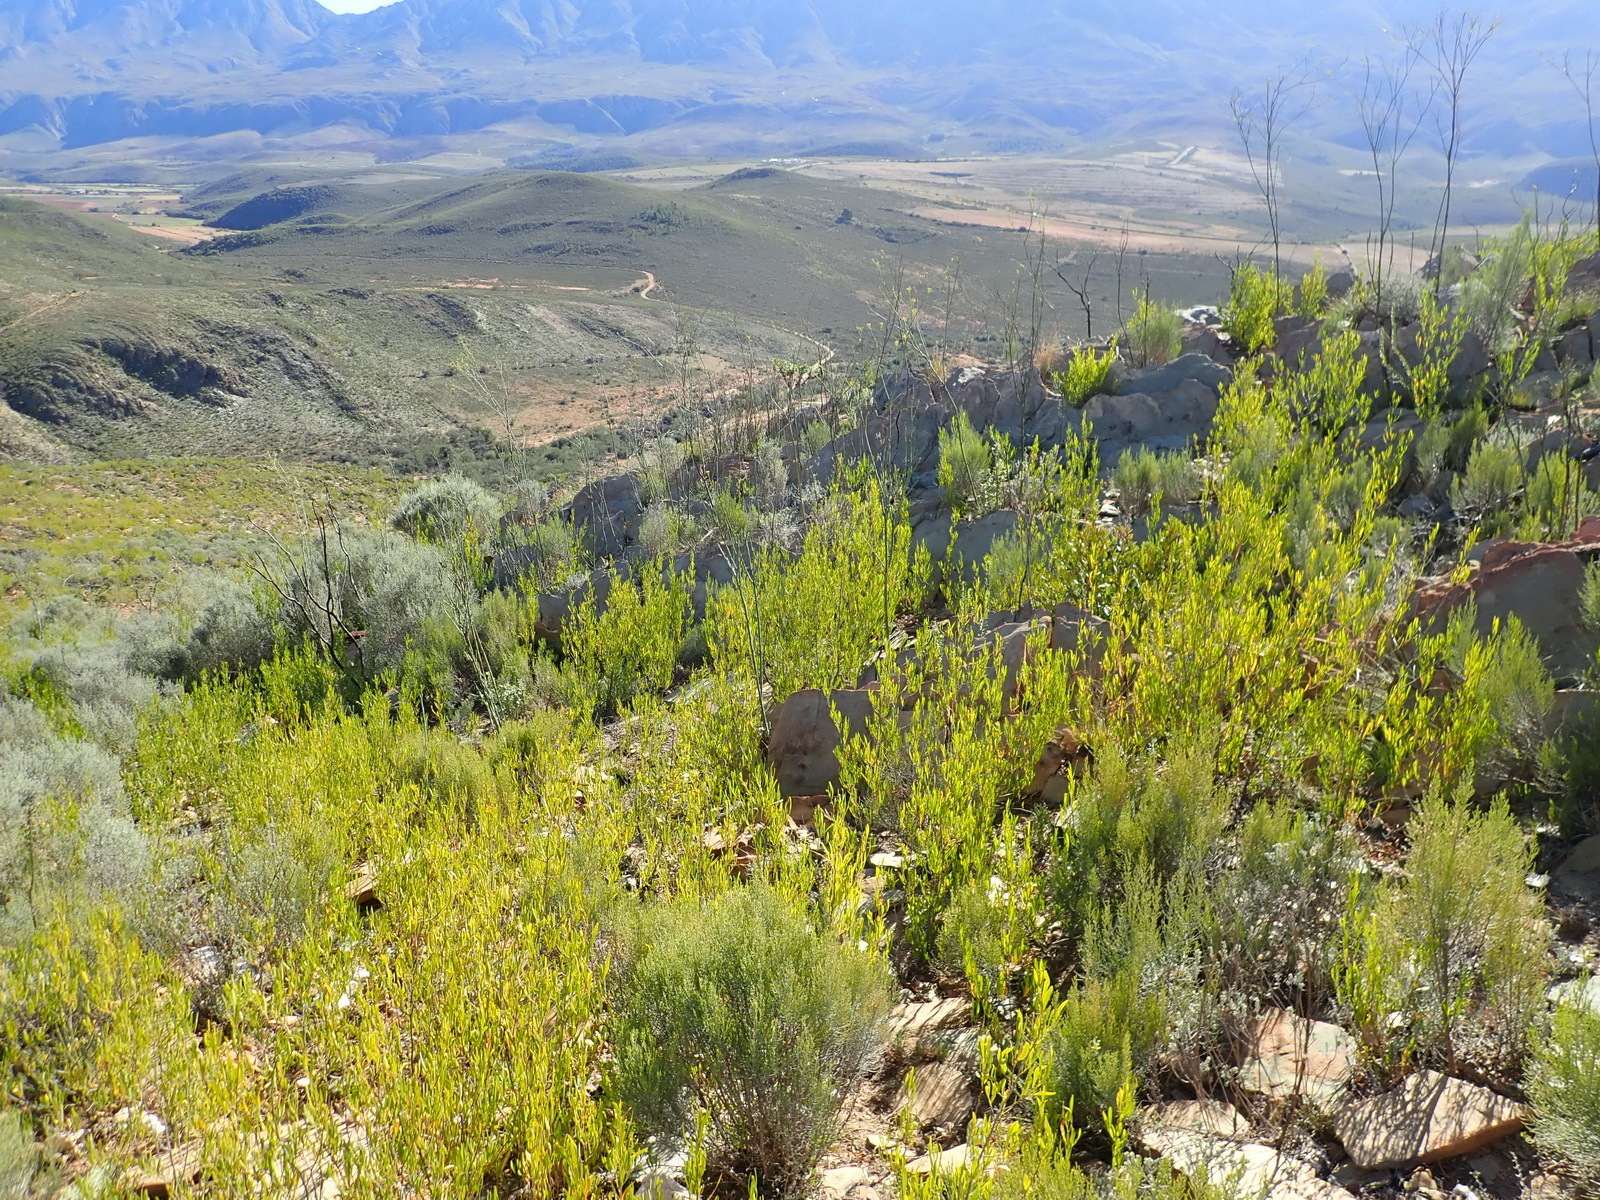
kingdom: Plantae
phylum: Tracheophyta
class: Magnoliopsida
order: Santalales
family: Thesiaceae
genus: Thesium
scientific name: Thesium strictum
